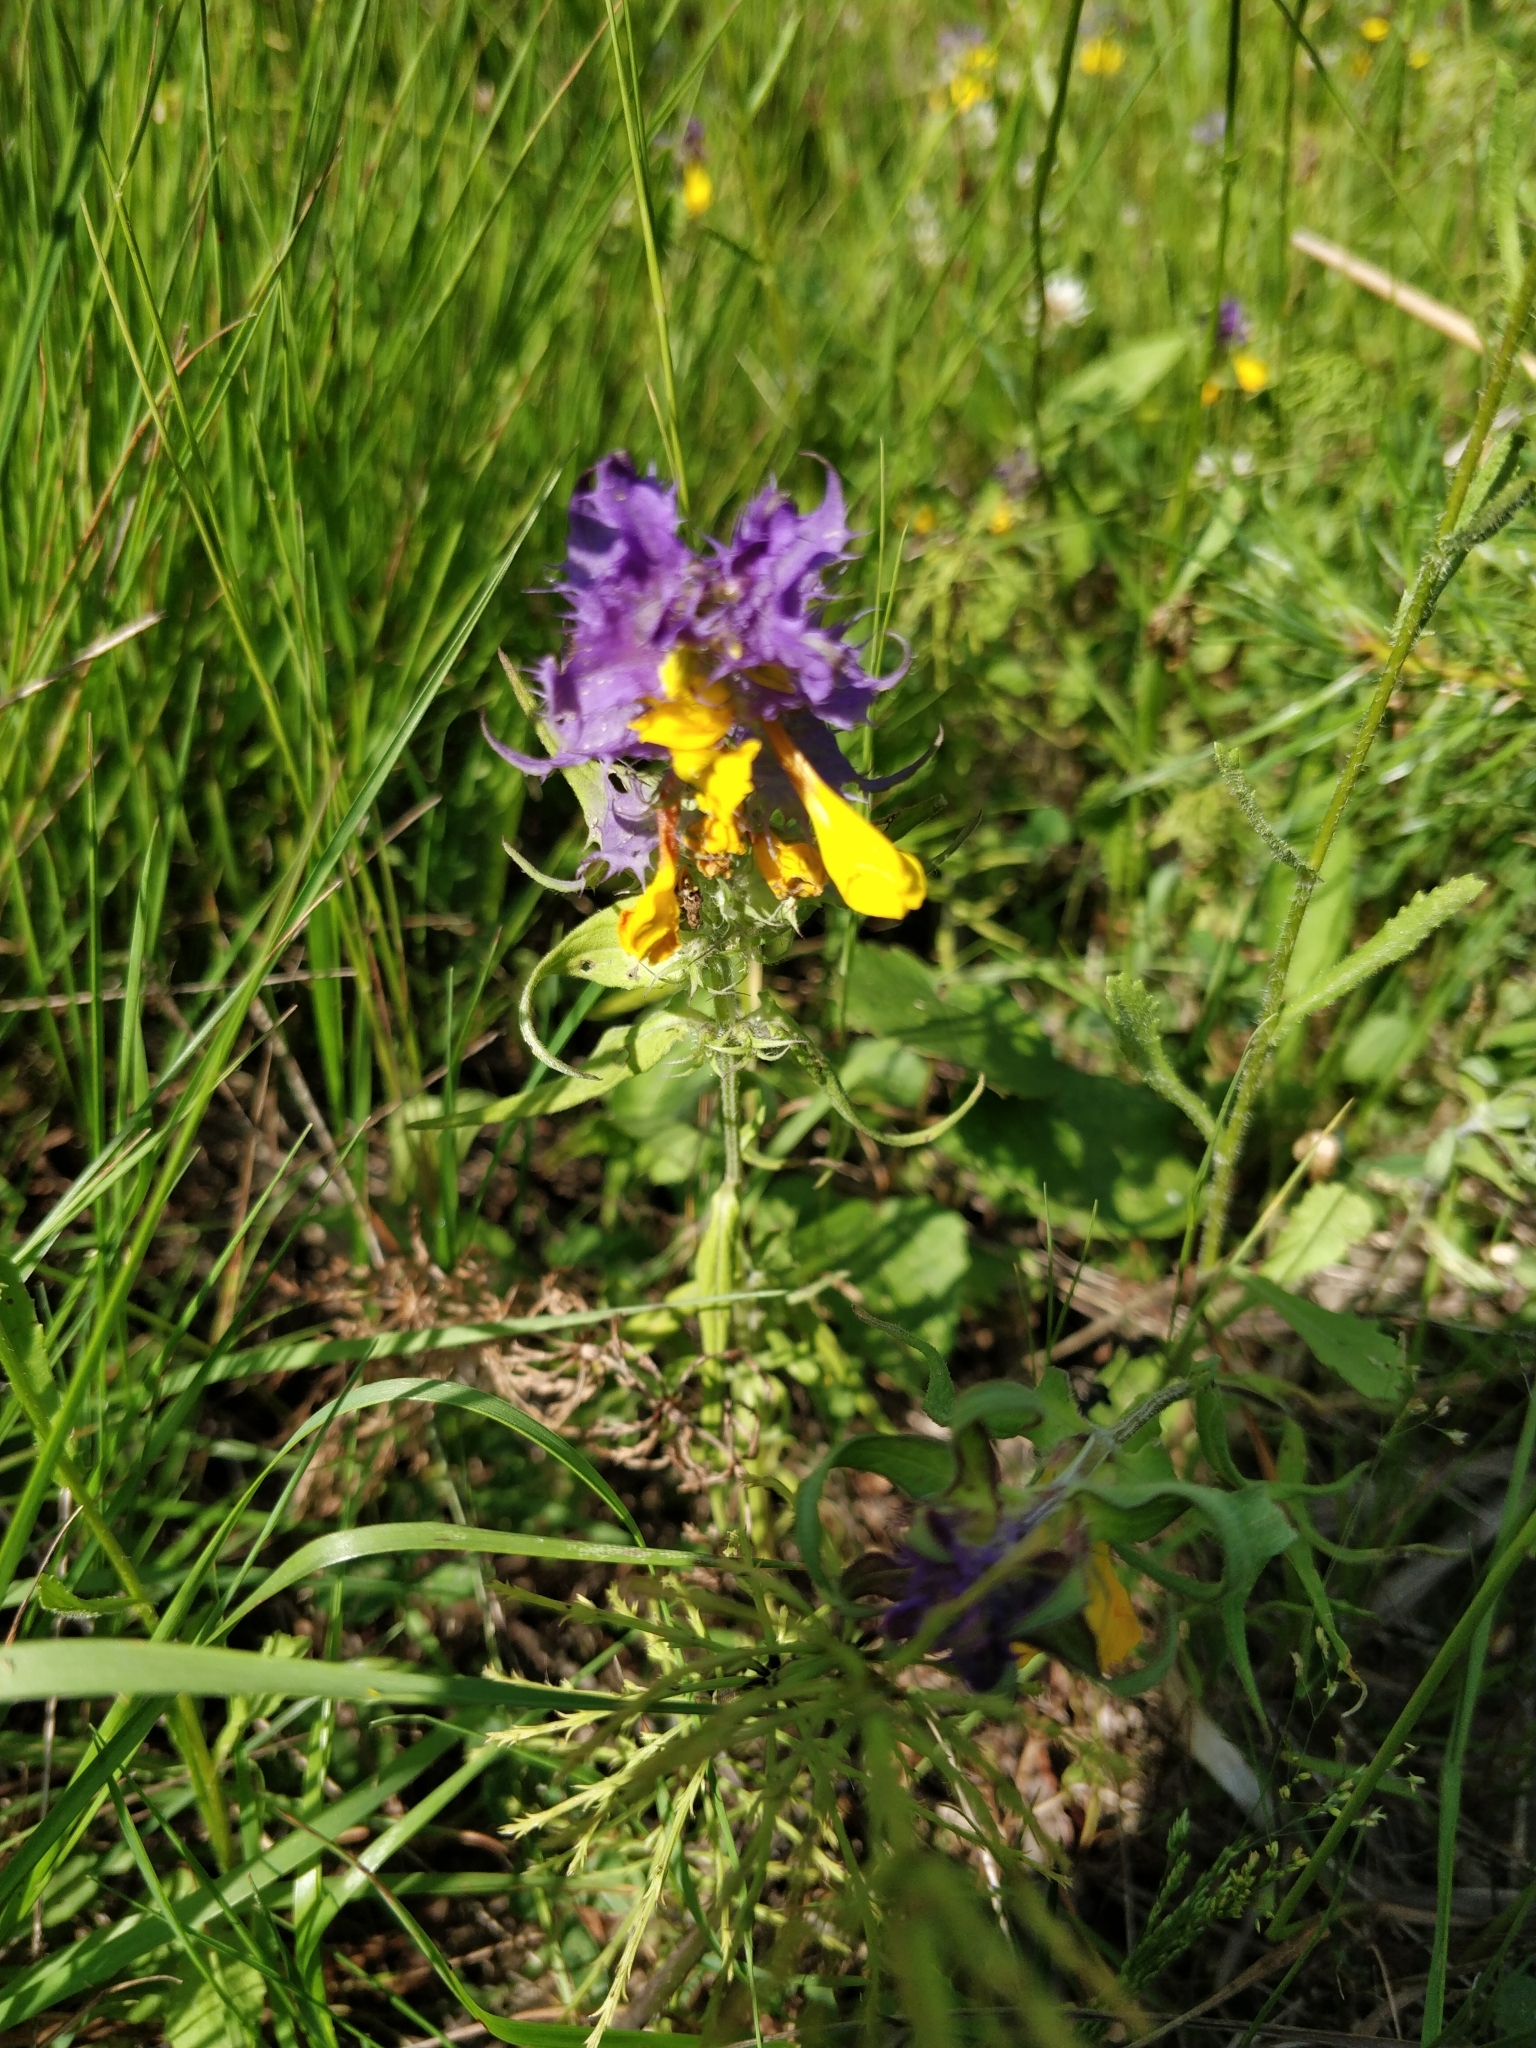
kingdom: Plantae
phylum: Tracheophyta
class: Magnoliopsida
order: Lamiales
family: Orobanchaceae
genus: Melampyrum
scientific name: Melampyrum nemorosum
